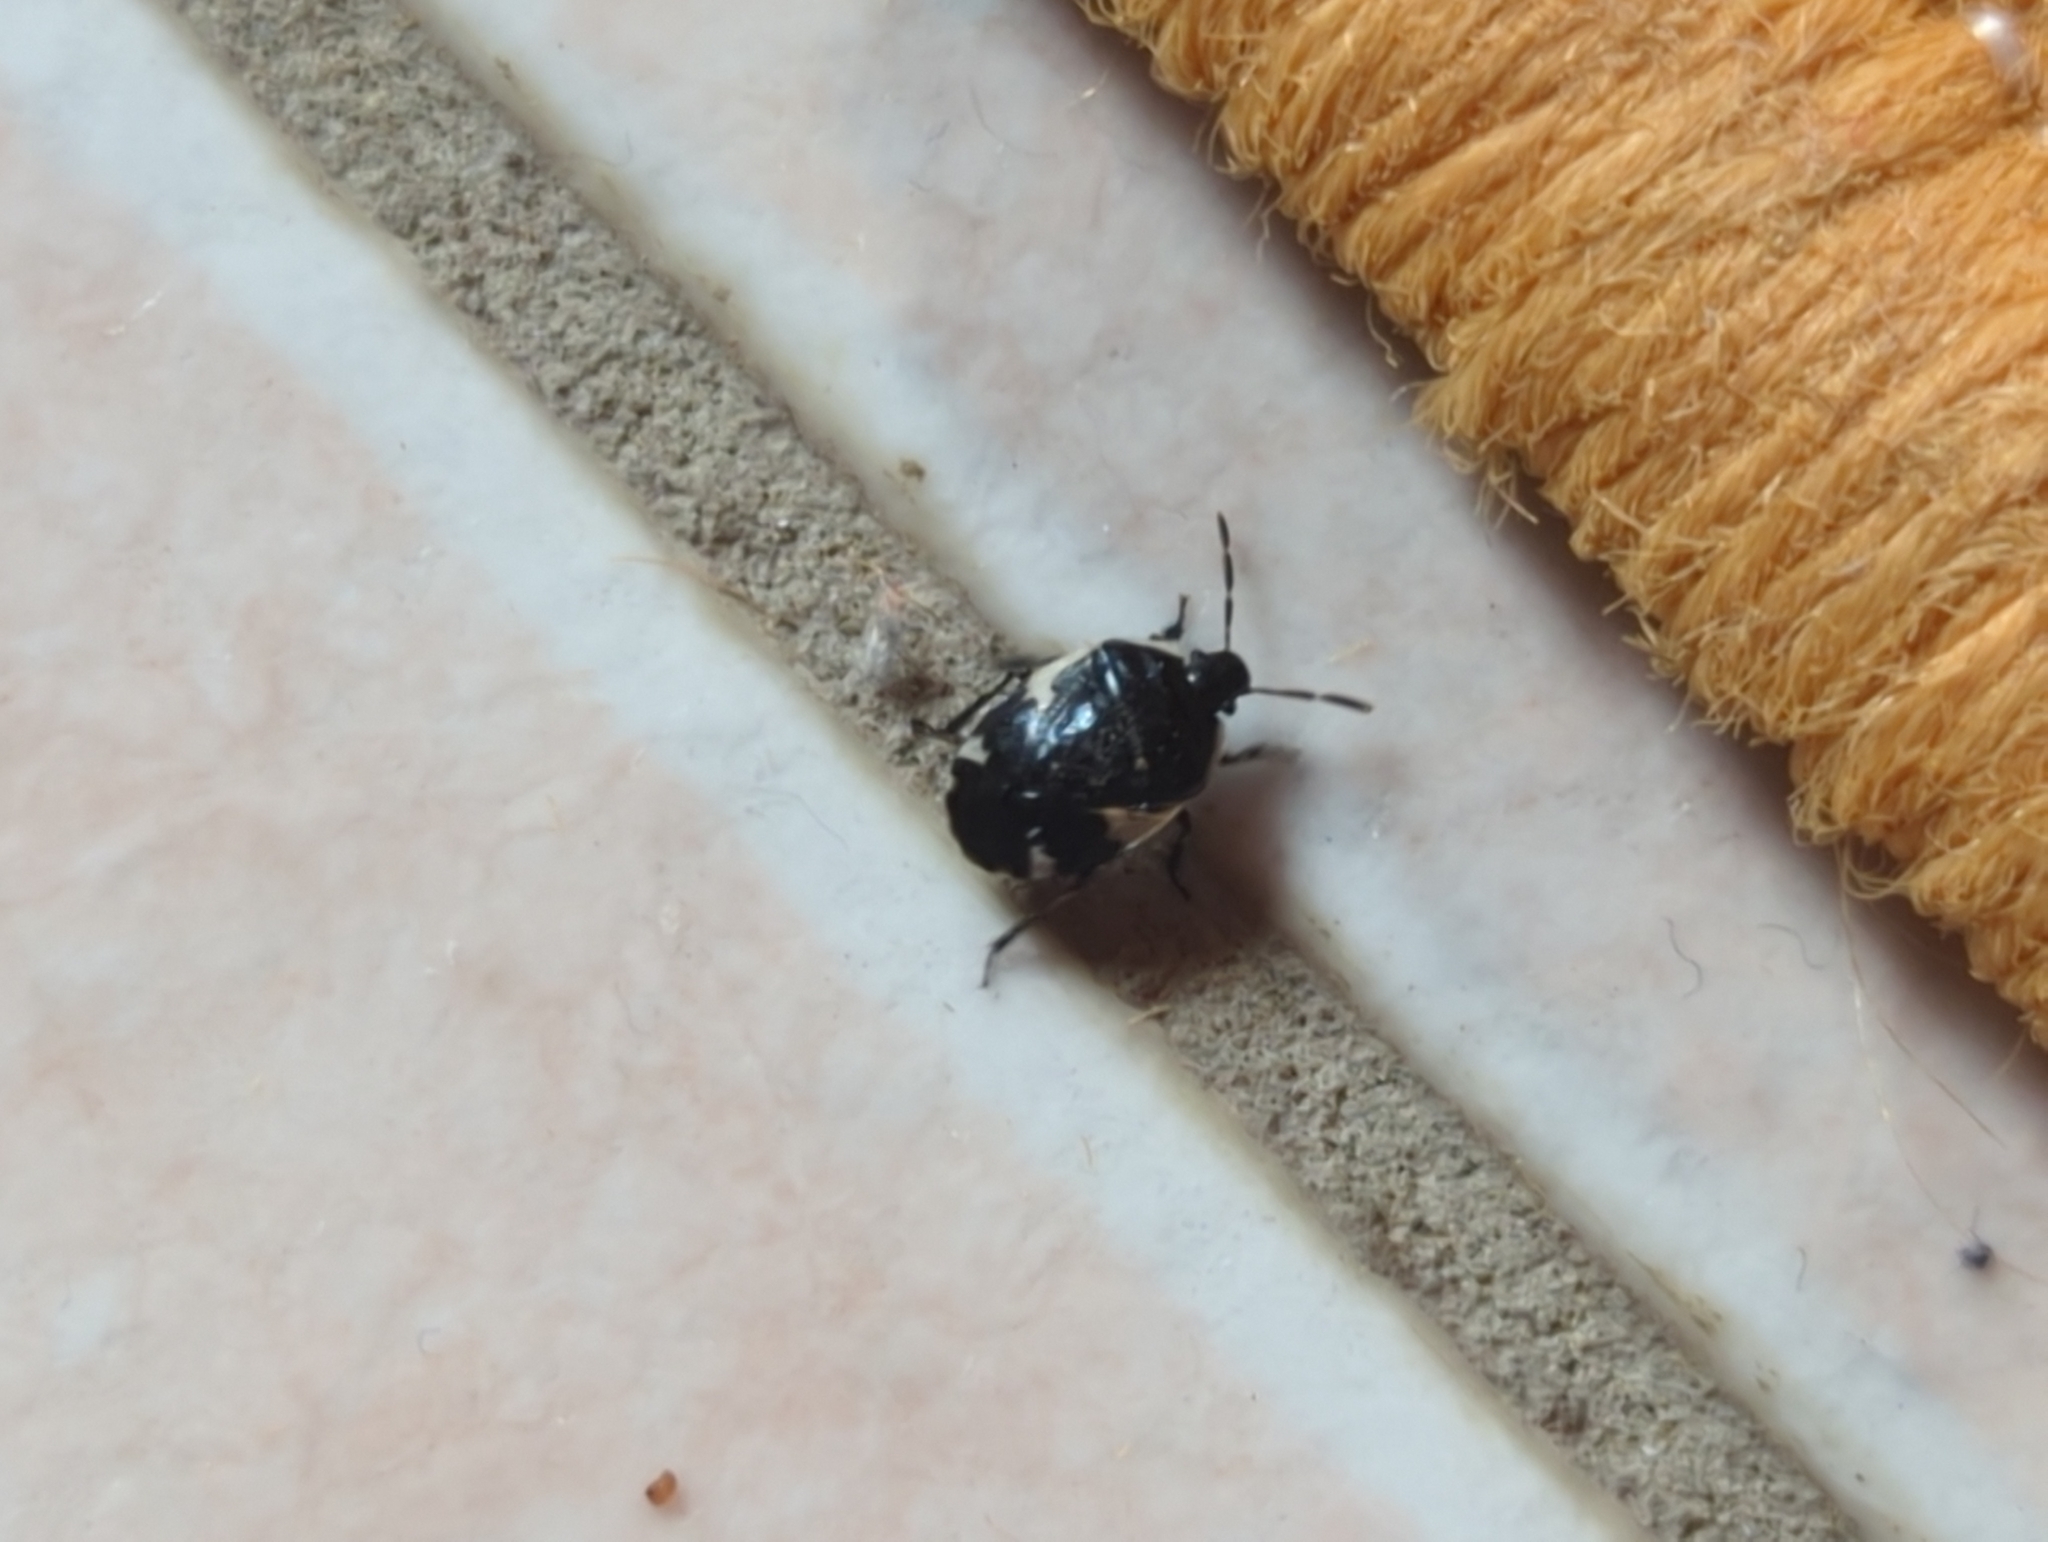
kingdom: Animalia
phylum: Arthropoda
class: Insecta
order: Hemiptera
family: Cydnidae
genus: Tritomegas
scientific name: Tritomegas sexmaculatus
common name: Rambur's pied shieldbug
